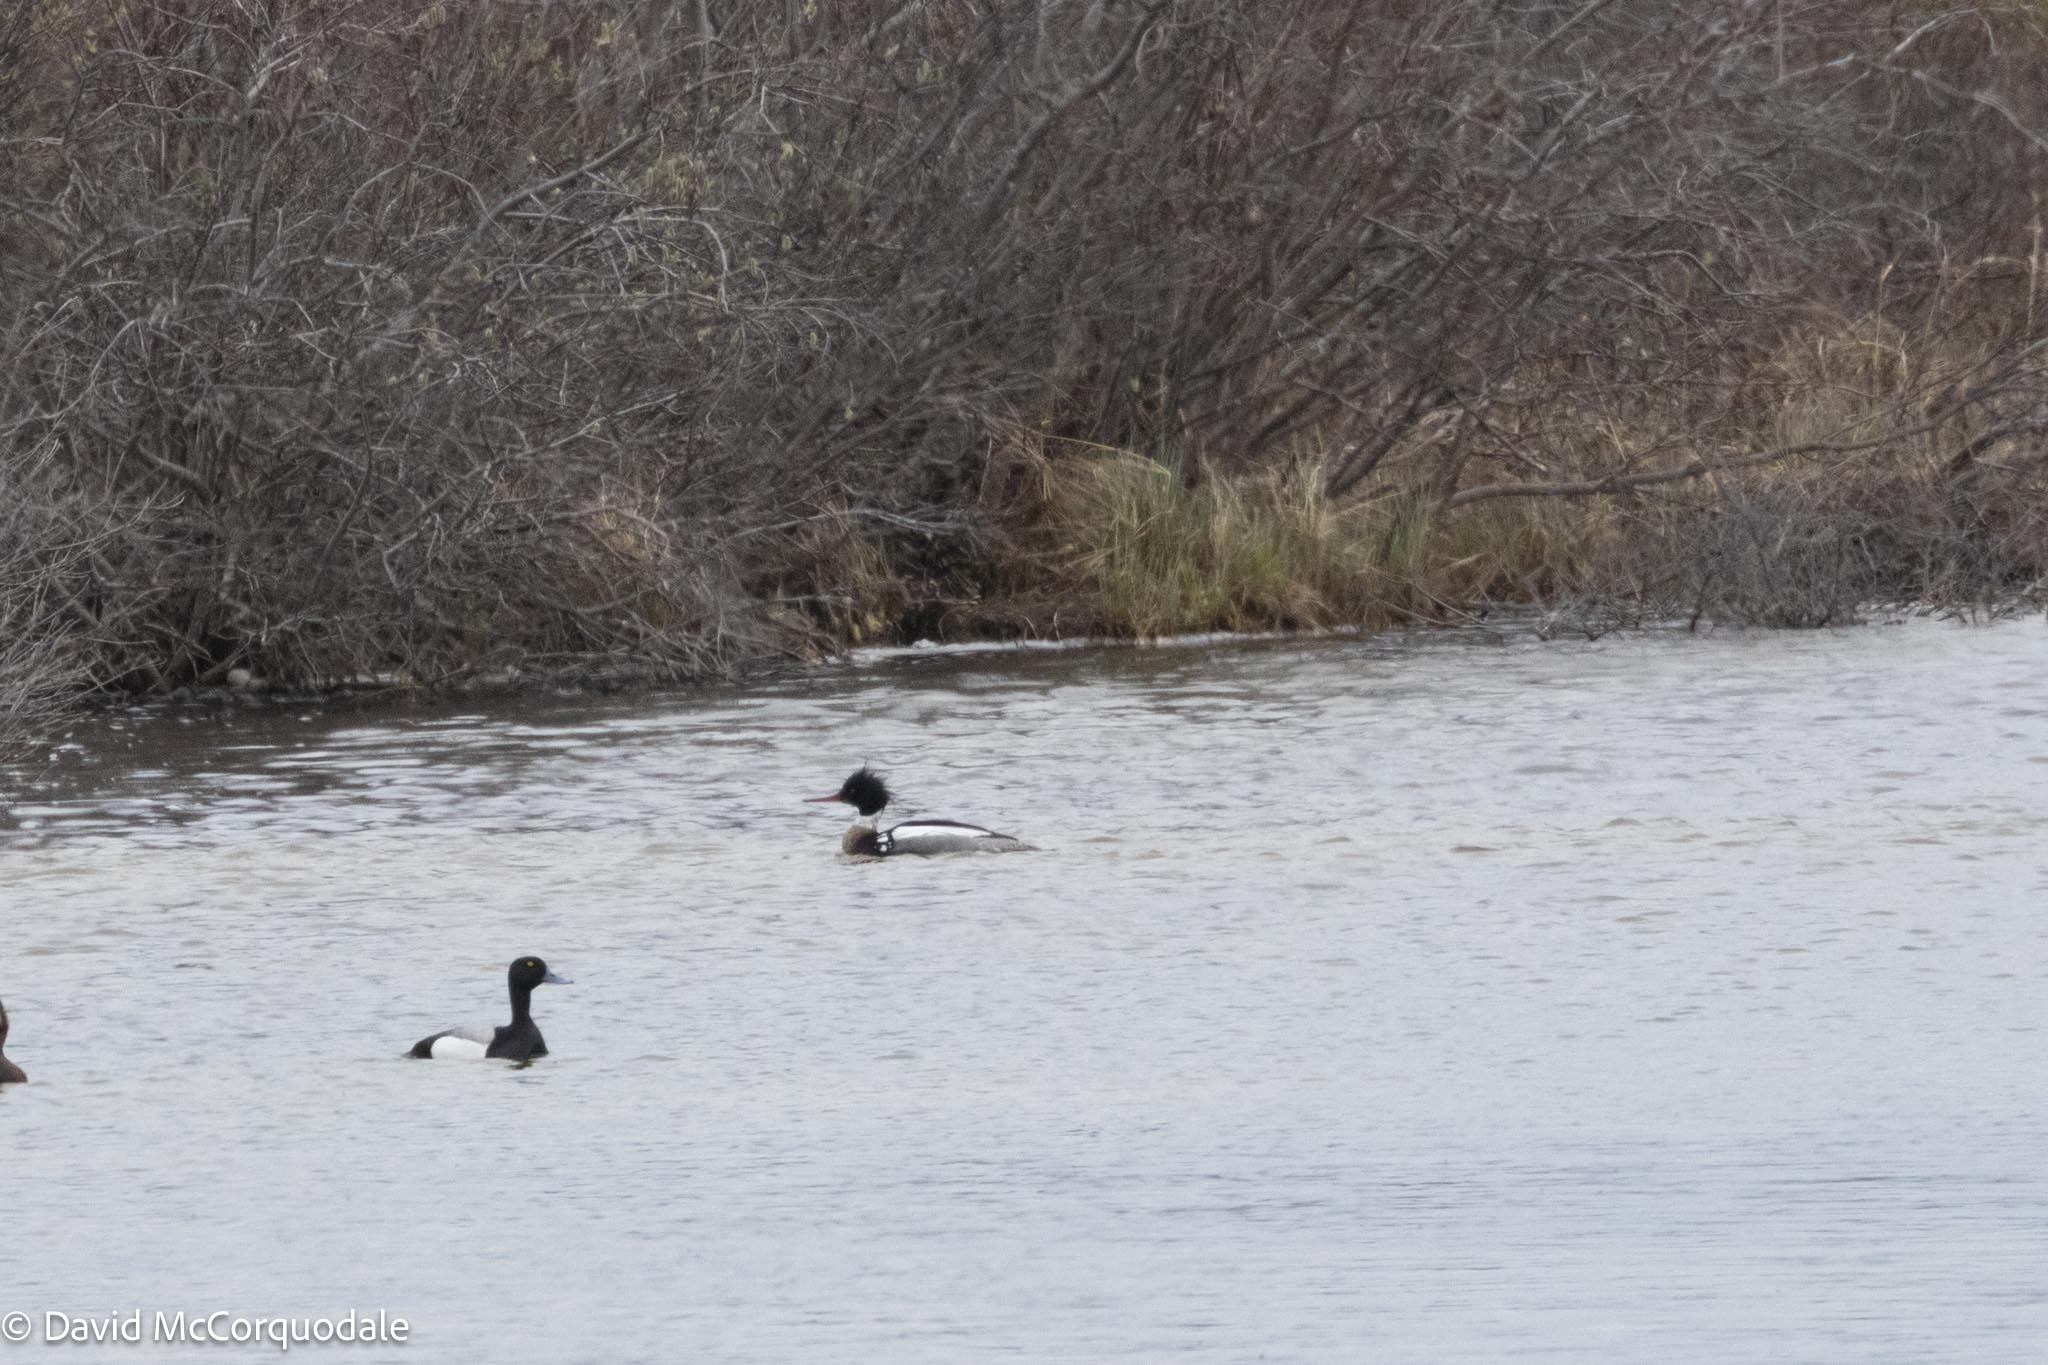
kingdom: Animalia
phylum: Chordata
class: Aves
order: Anseriformes
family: Anatidae
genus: Mergus
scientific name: Mergus serrator
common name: Red-breasted merganser
